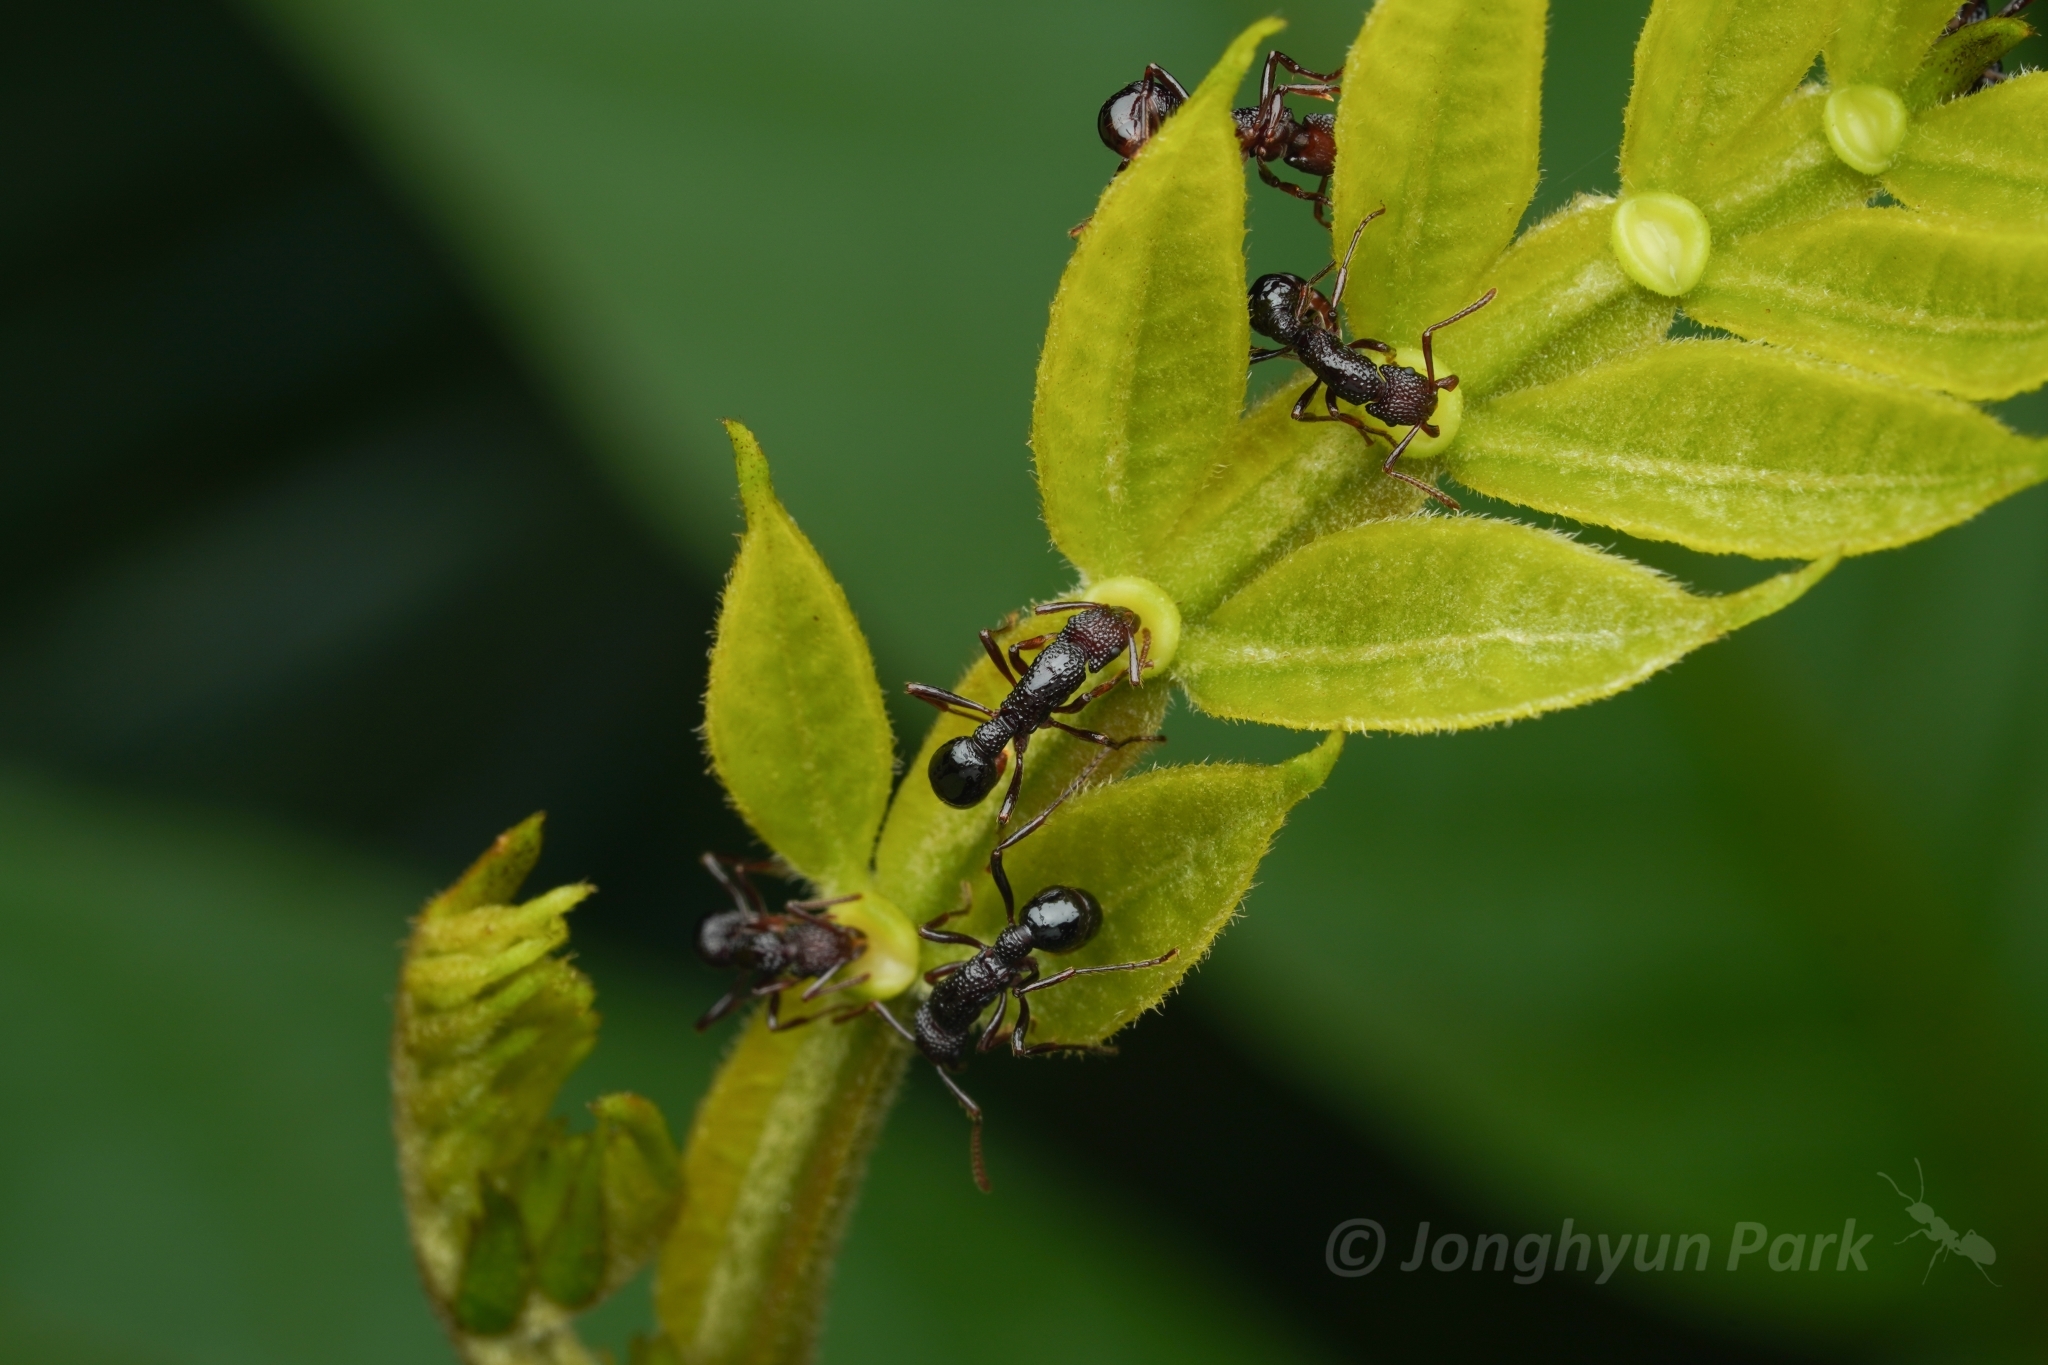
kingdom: Animalia
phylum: Arthropoda
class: Insecta
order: Hymenoptera
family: Formicidae
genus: Stictoponera
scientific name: Stictoponera
